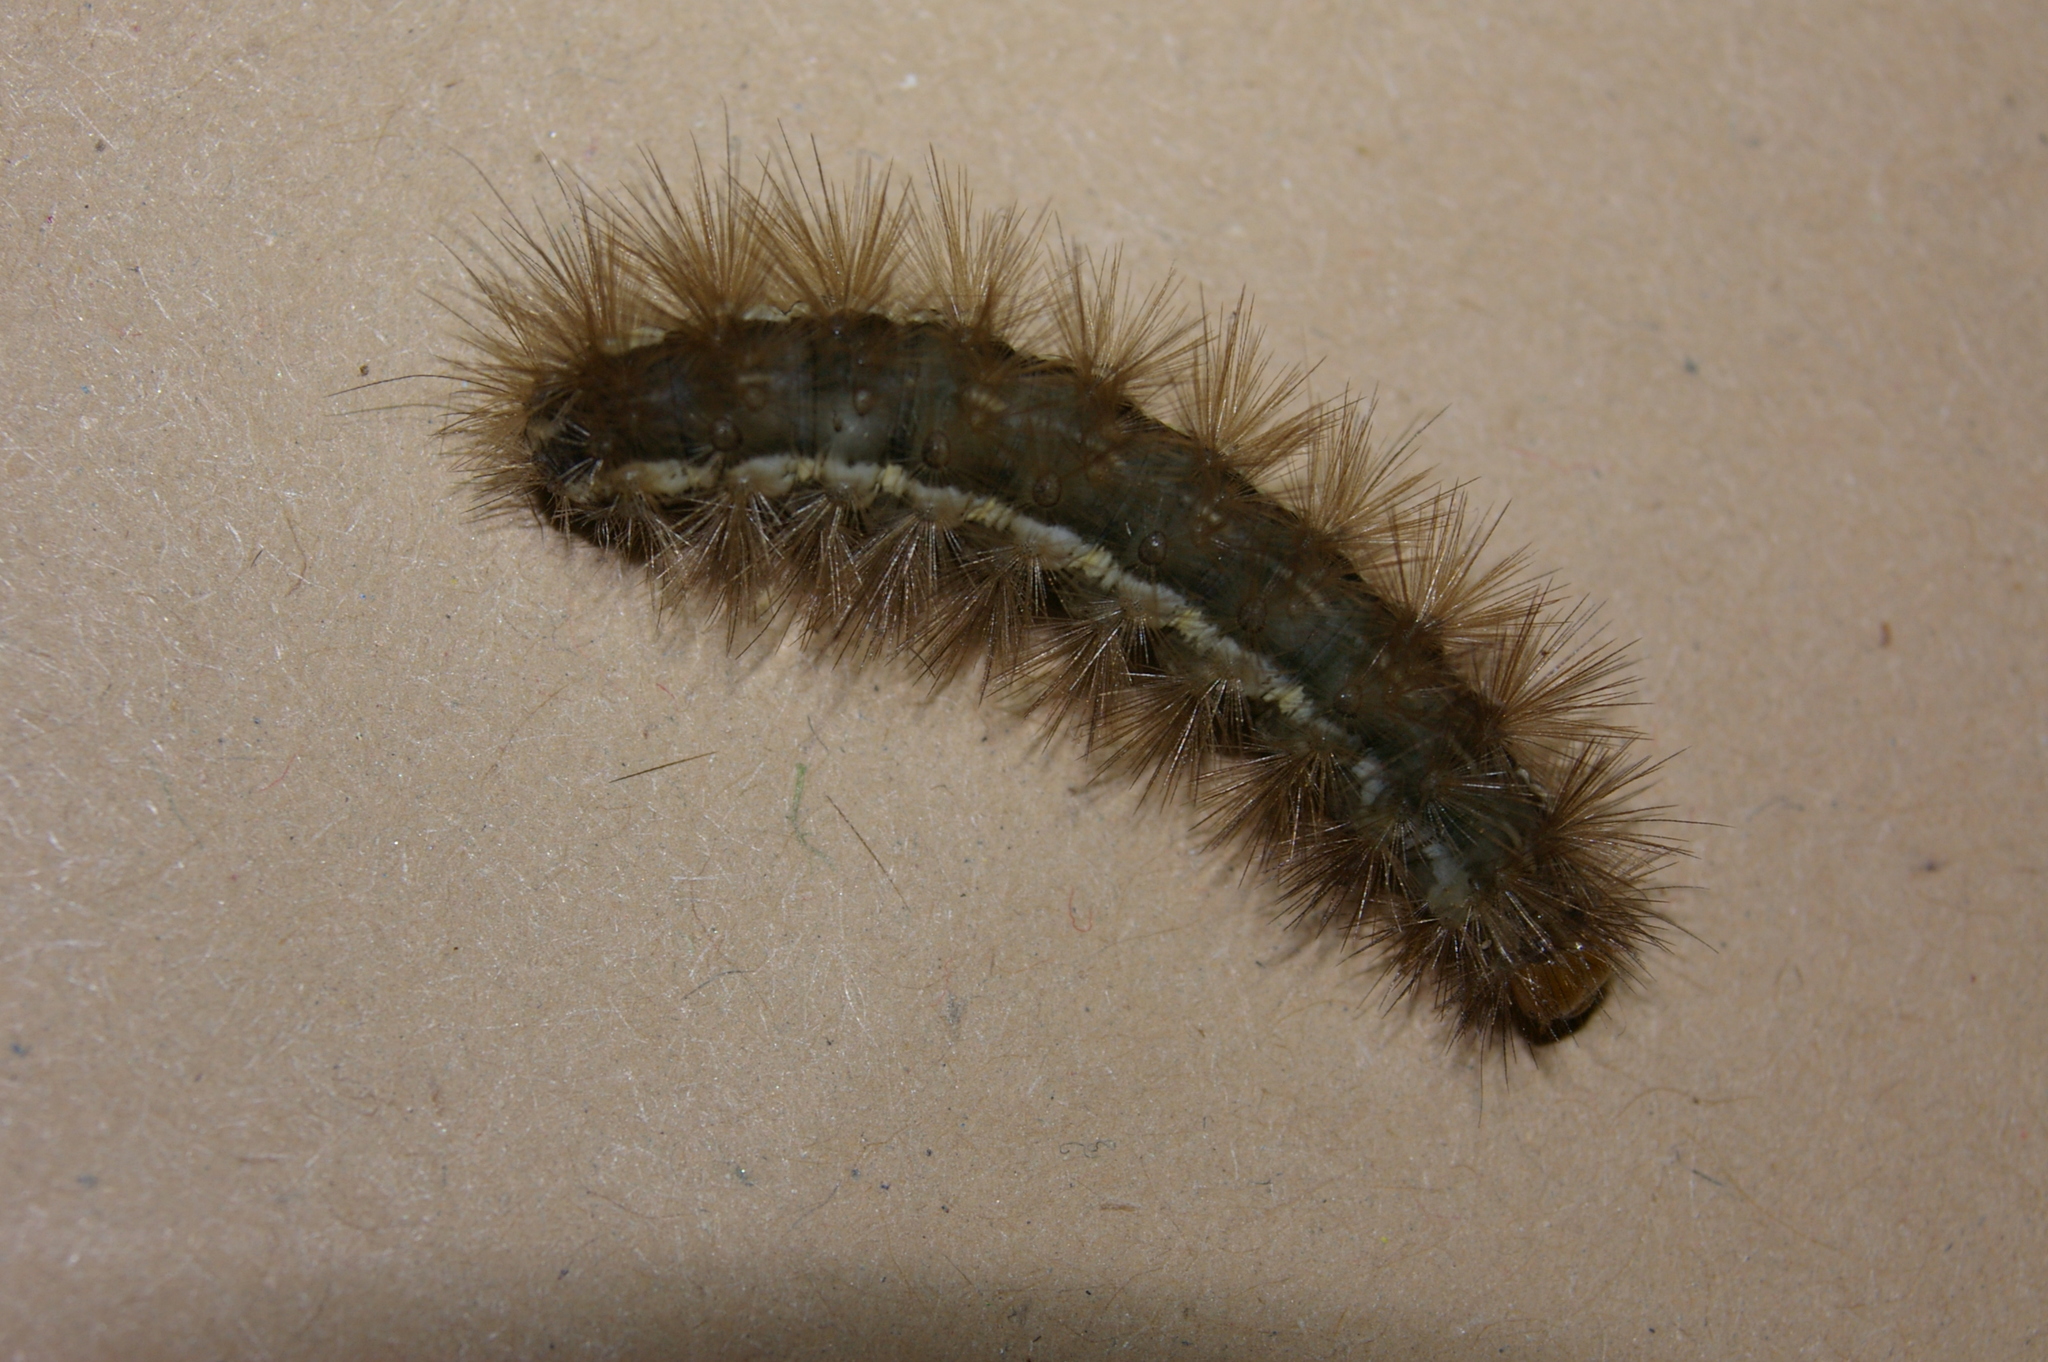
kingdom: Animalia
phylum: Arthropoda
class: Insecta
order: Lepidoptera
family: Erebidae
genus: Spilarctia
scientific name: Spilarctia lutea
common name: Buff ermine
